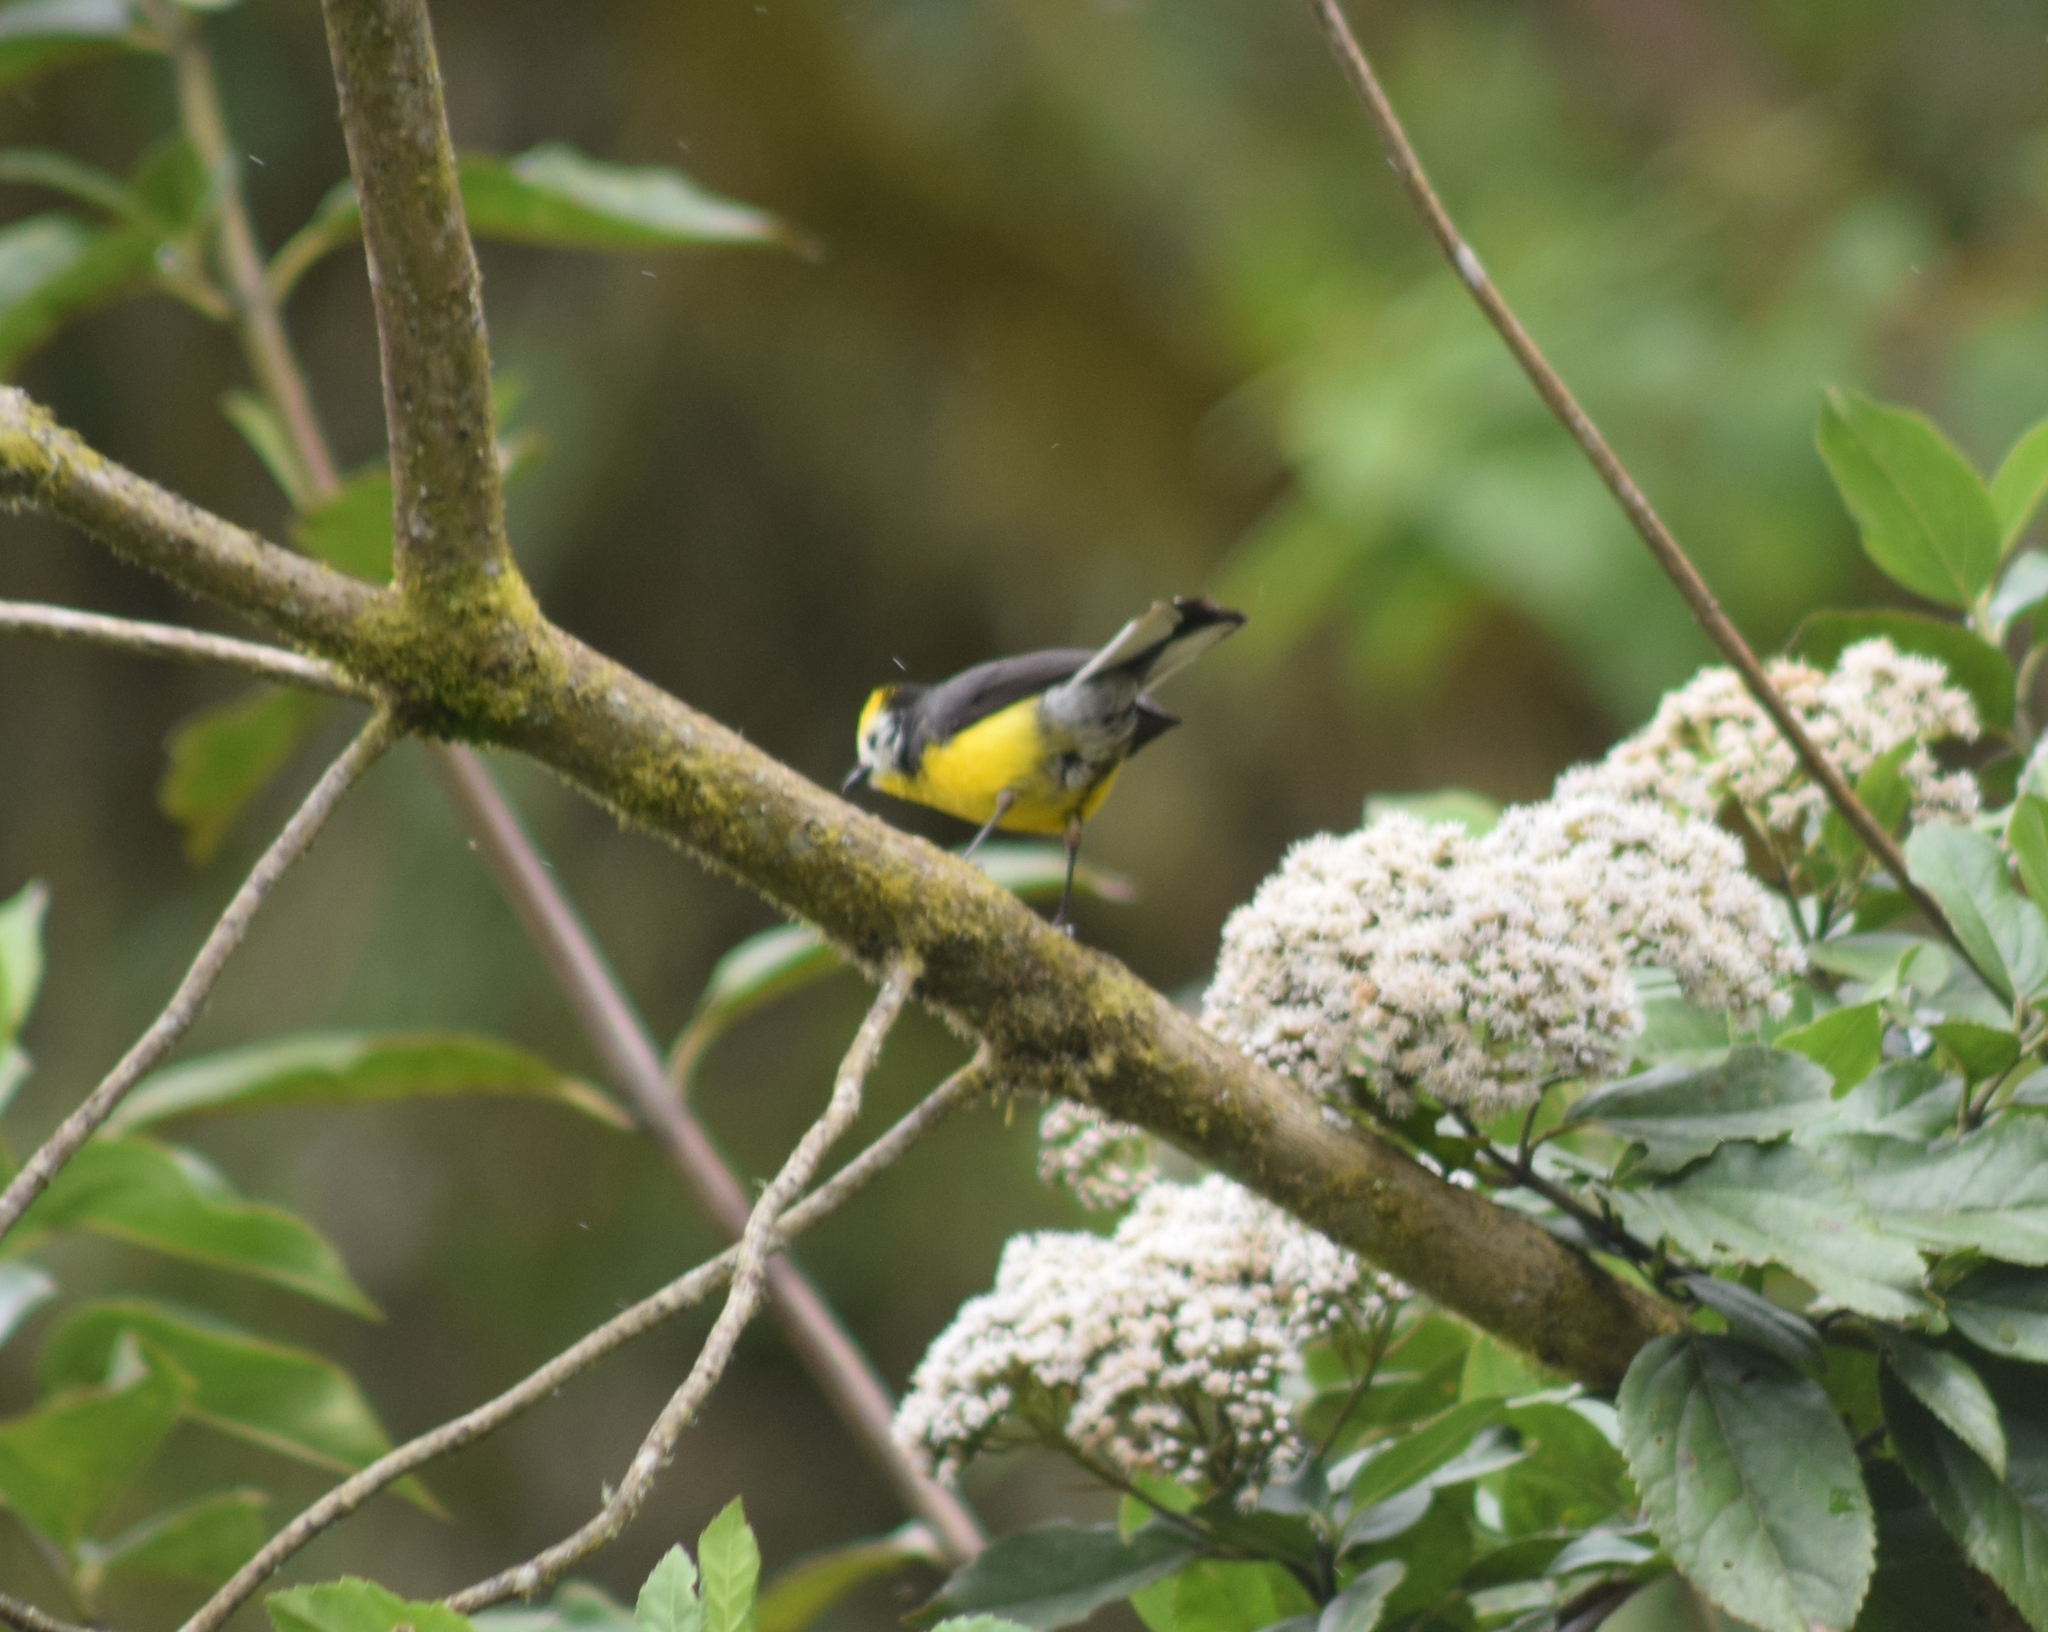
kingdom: Animalia
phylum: Chordata
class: Aves
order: Passeriformes
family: Parulidae
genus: Myioborus
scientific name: Myioborus ornatus
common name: Golden-fronted whitestart
